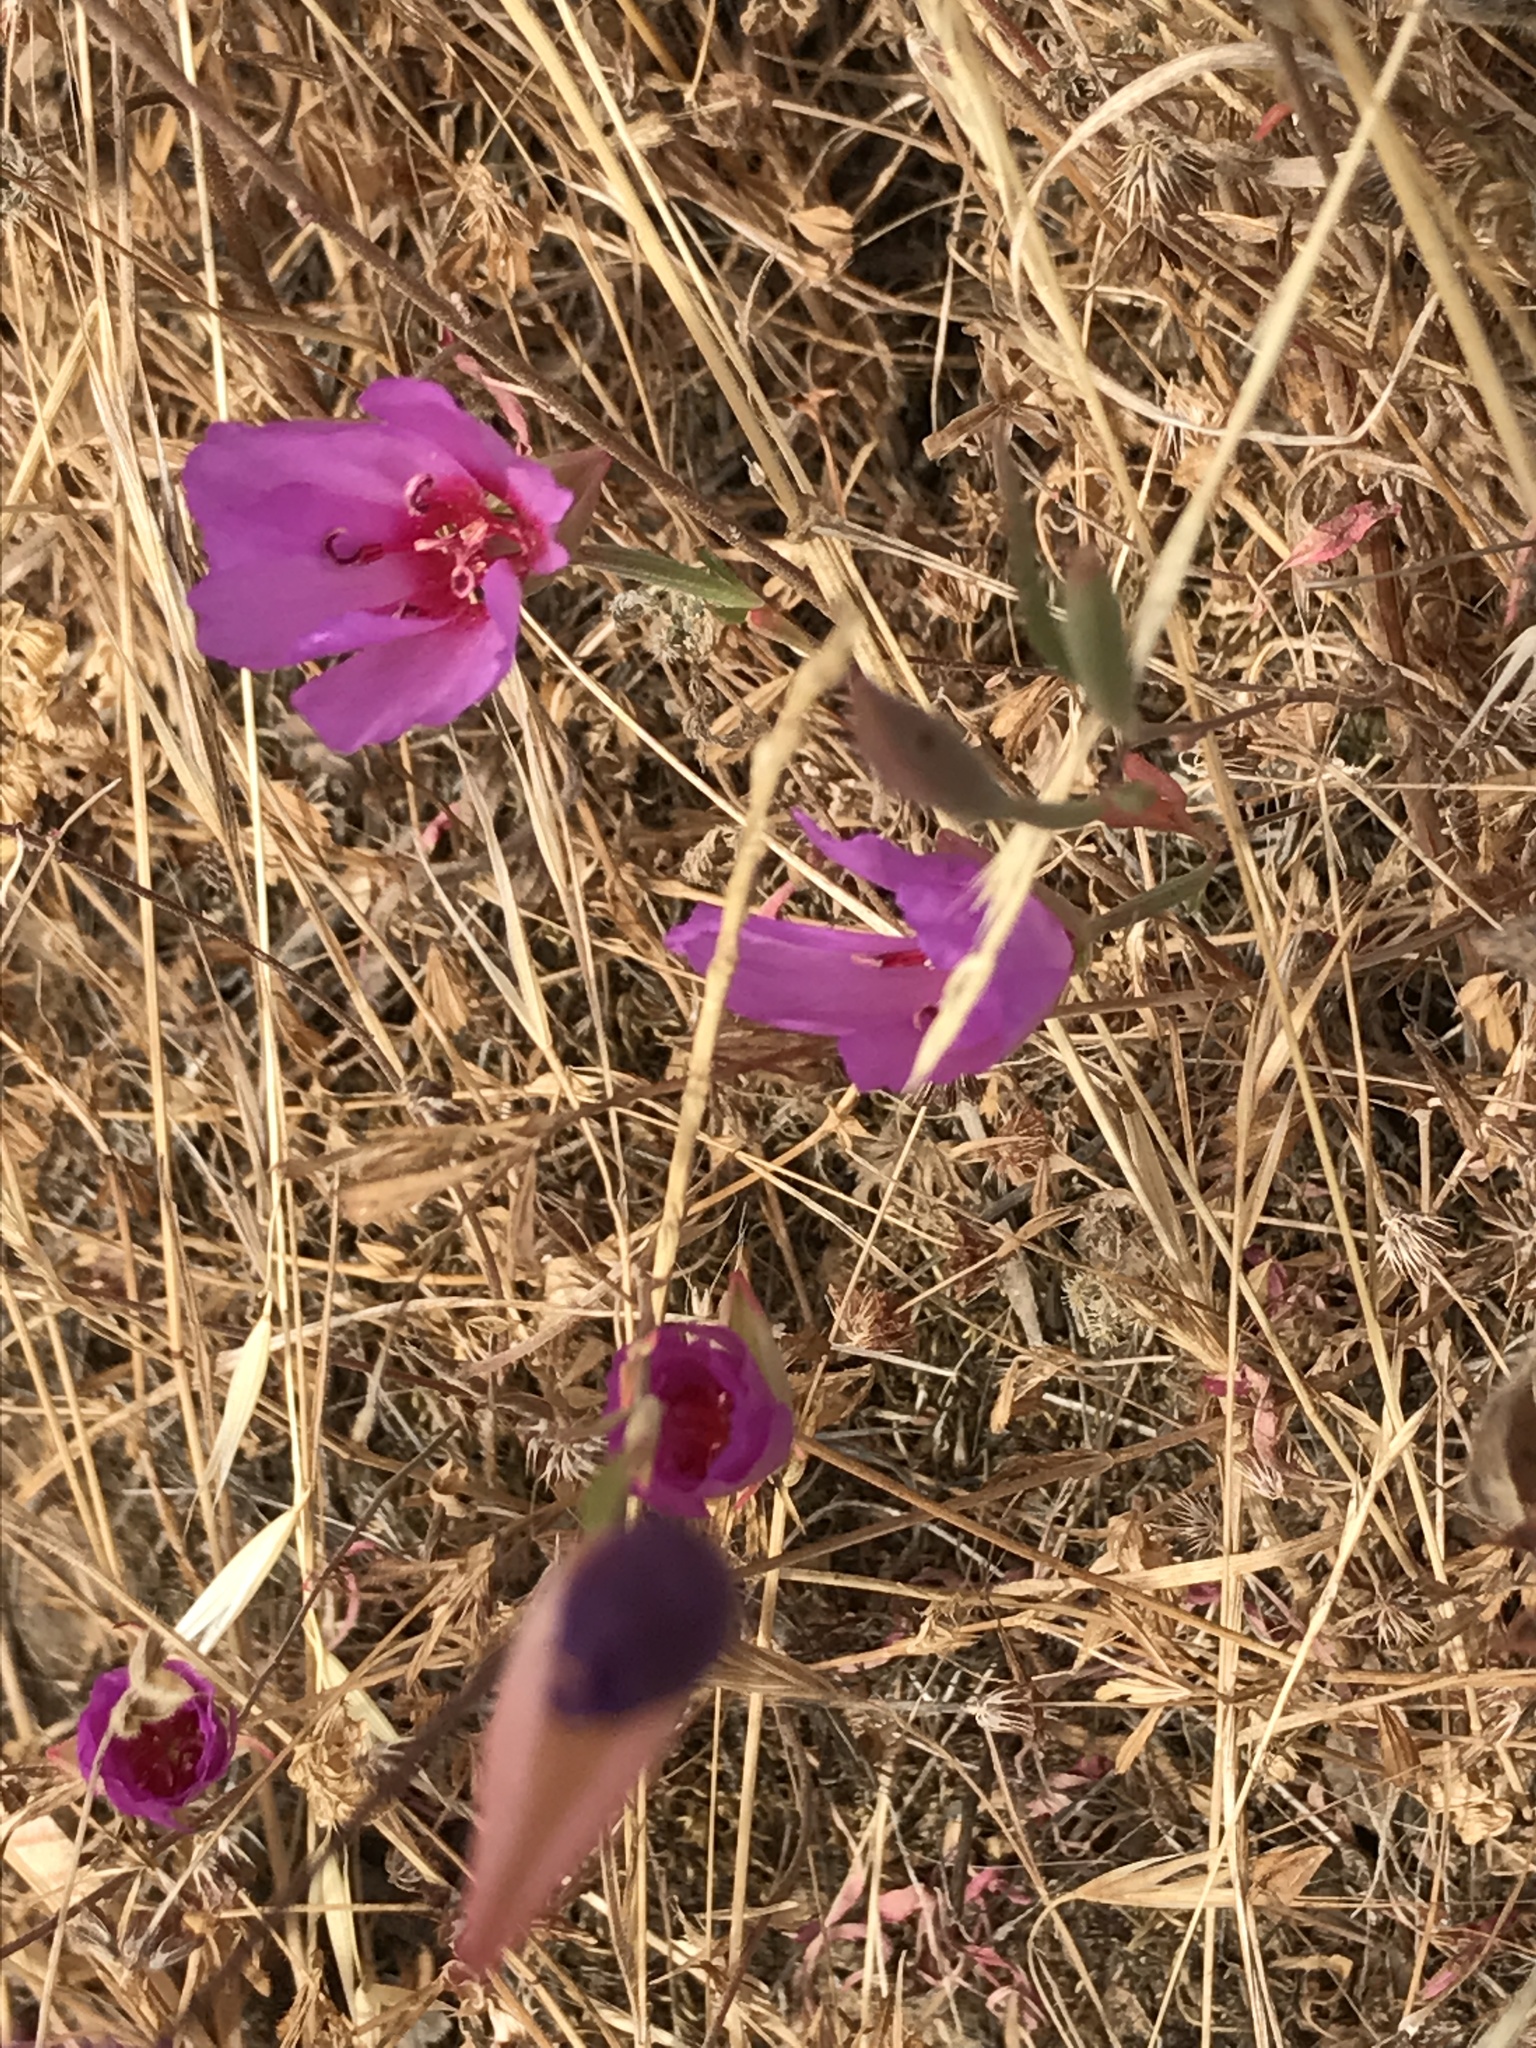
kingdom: Plantae
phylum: Tracheophyta
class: Magnoliopsida
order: Myrtales
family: Onagraceae
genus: Clarkia
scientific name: Clarkia rubicunda
